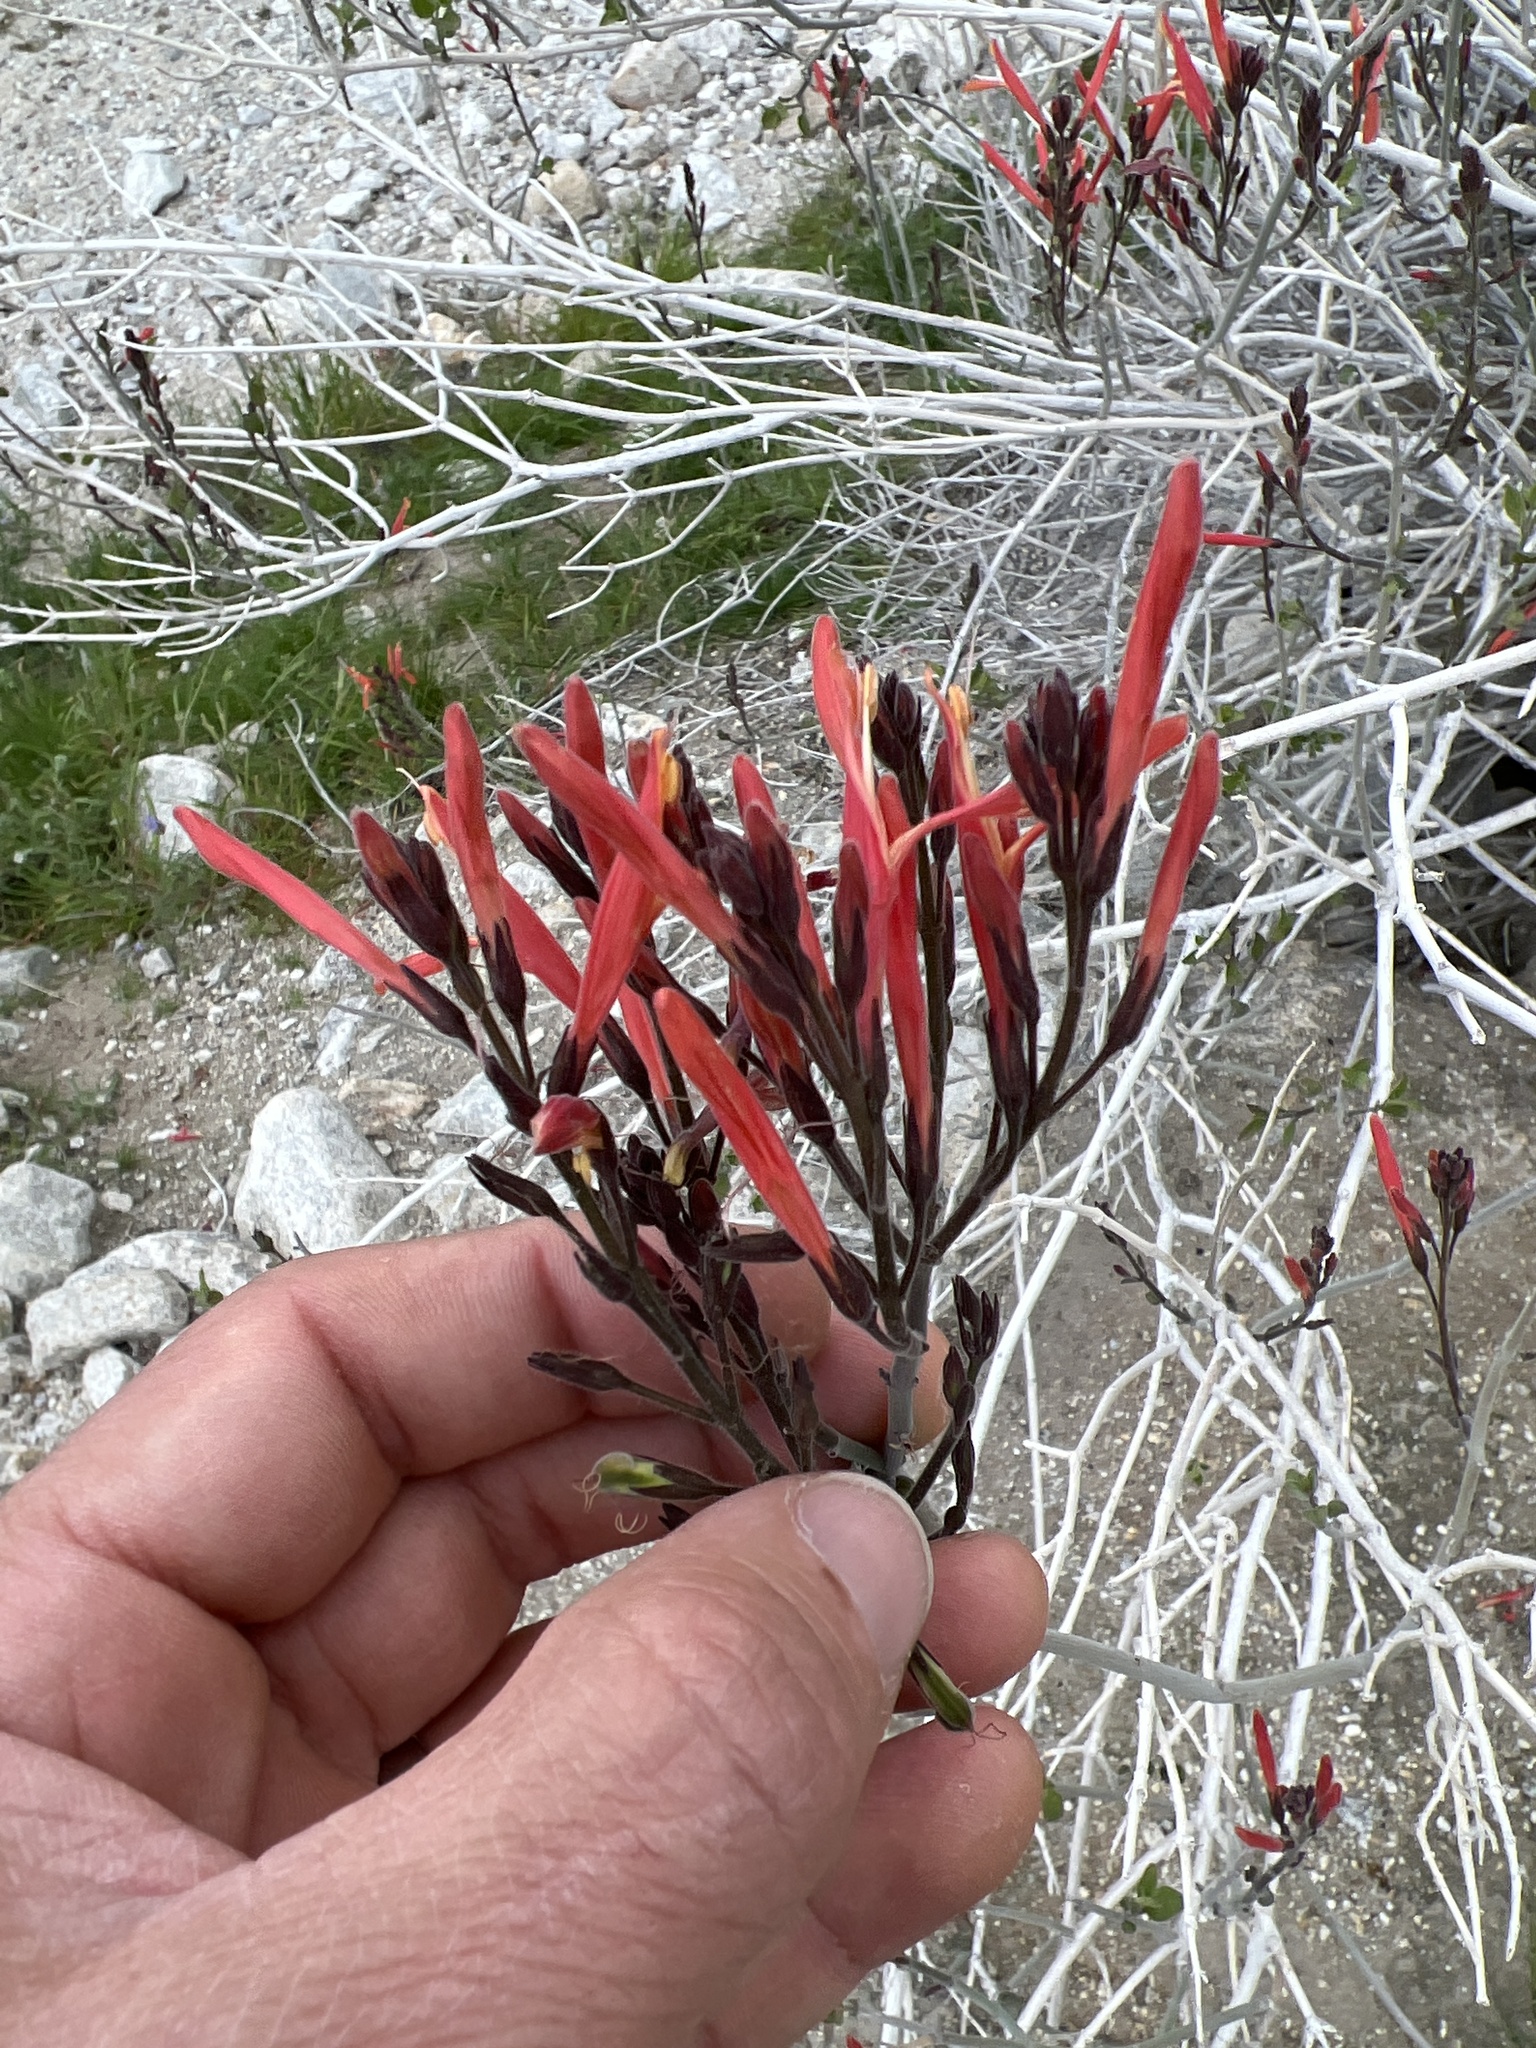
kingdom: Plantae
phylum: Tracheophyta
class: Magnoliopsida
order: Lamiales
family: Acanthaceae
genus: Justicia
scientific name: Justicia californica
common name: Chuparosa-honeysuckle
